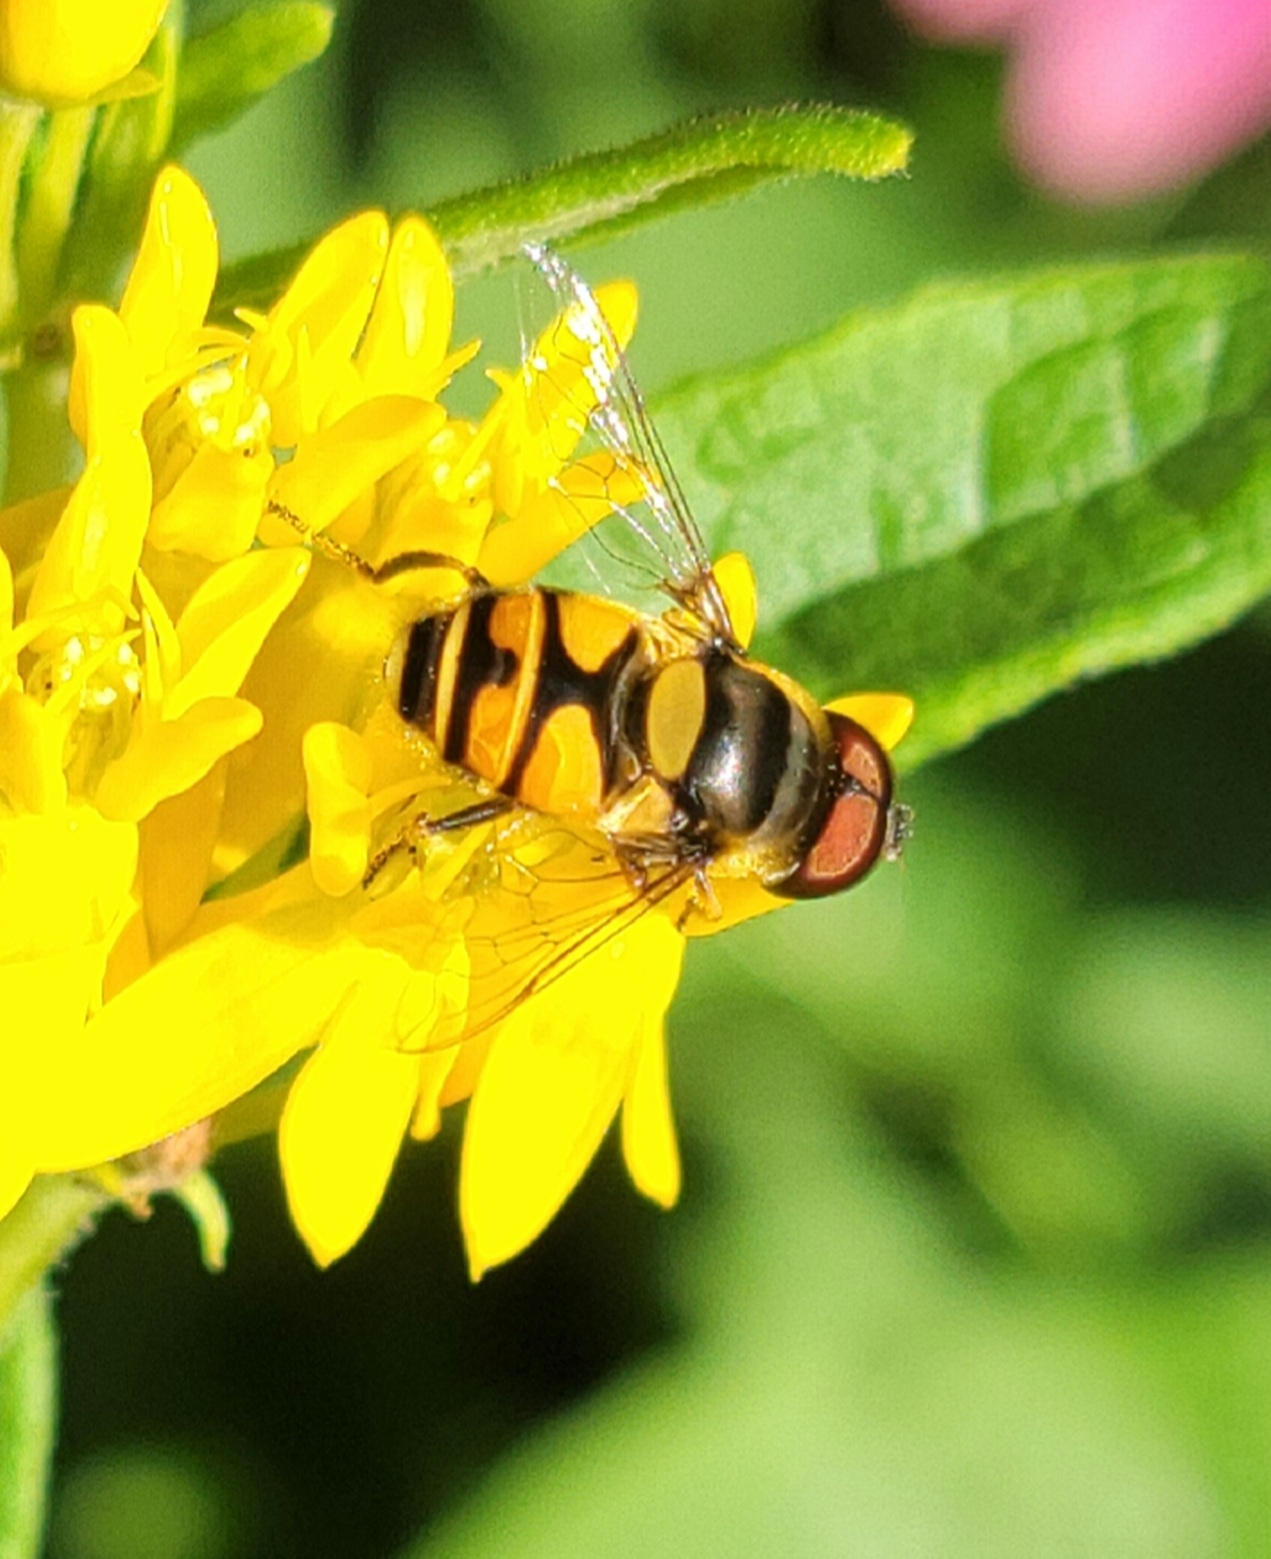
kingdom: Animalia
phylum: Arthropoda
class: Insecta
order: Diptera
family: Syrphidae
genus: Eristalis
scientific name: Eristalis transversa
